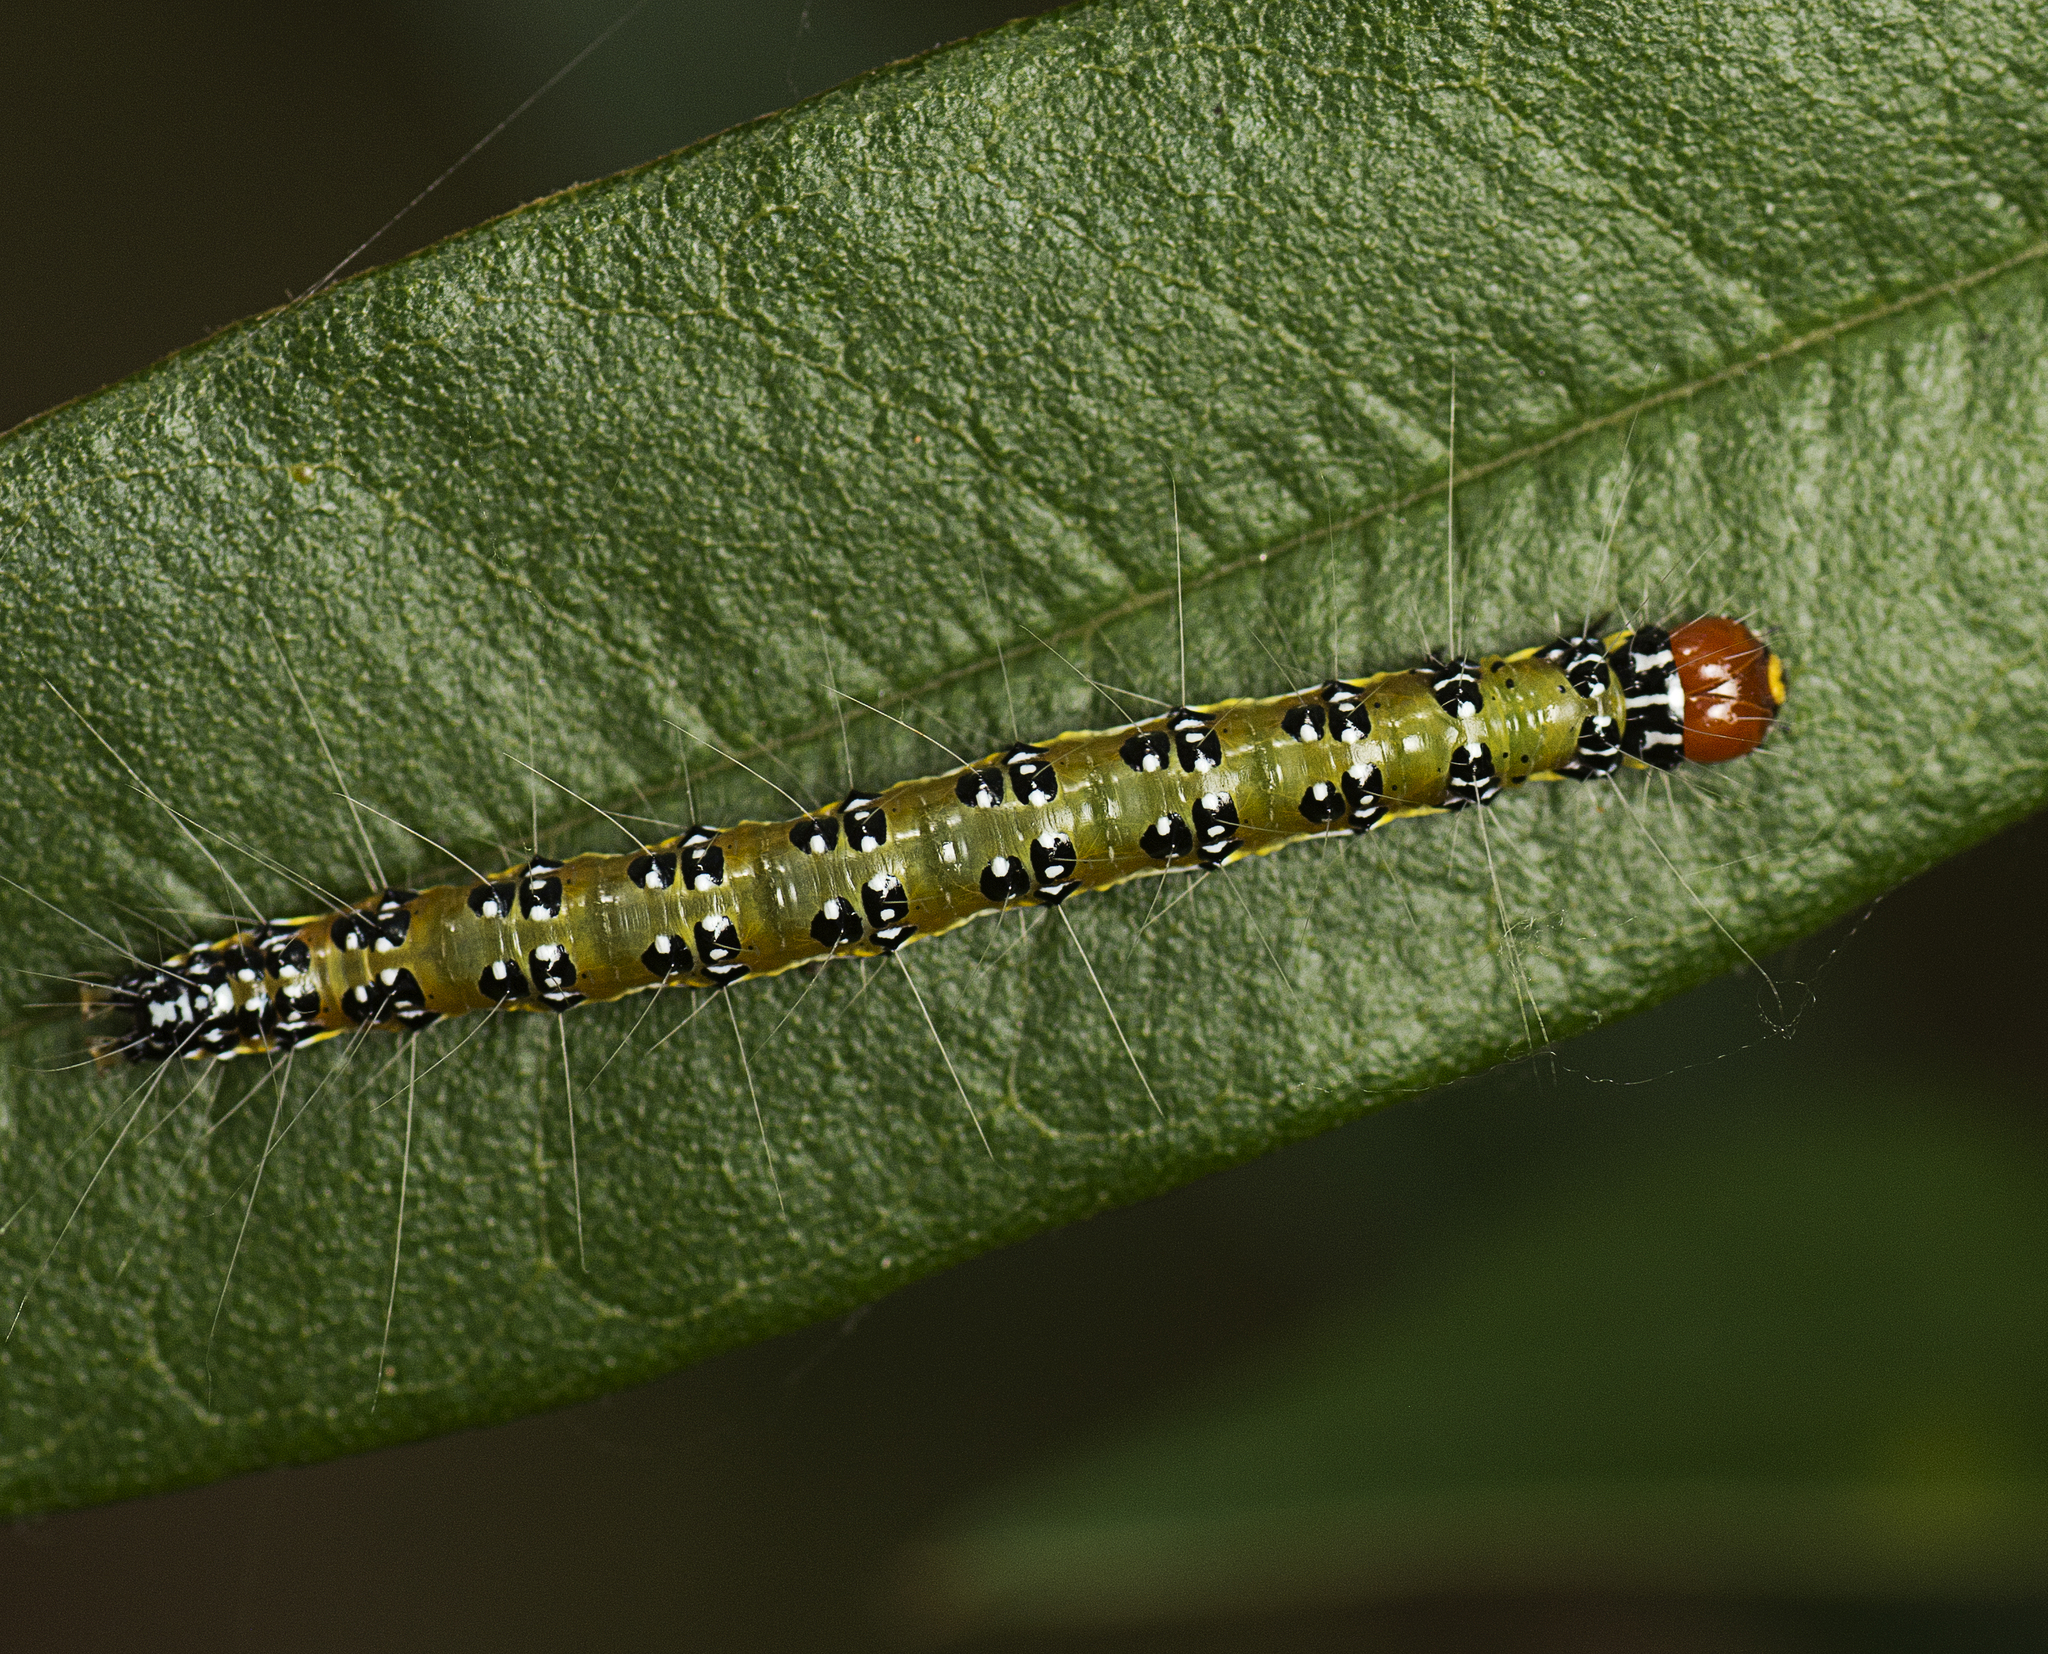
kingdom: Animalia
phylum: Arthropoda
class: Insecta
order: Lepidoptera
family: Crambidae
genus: Uresiphita
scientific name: Uresiphita ornithopteralis
